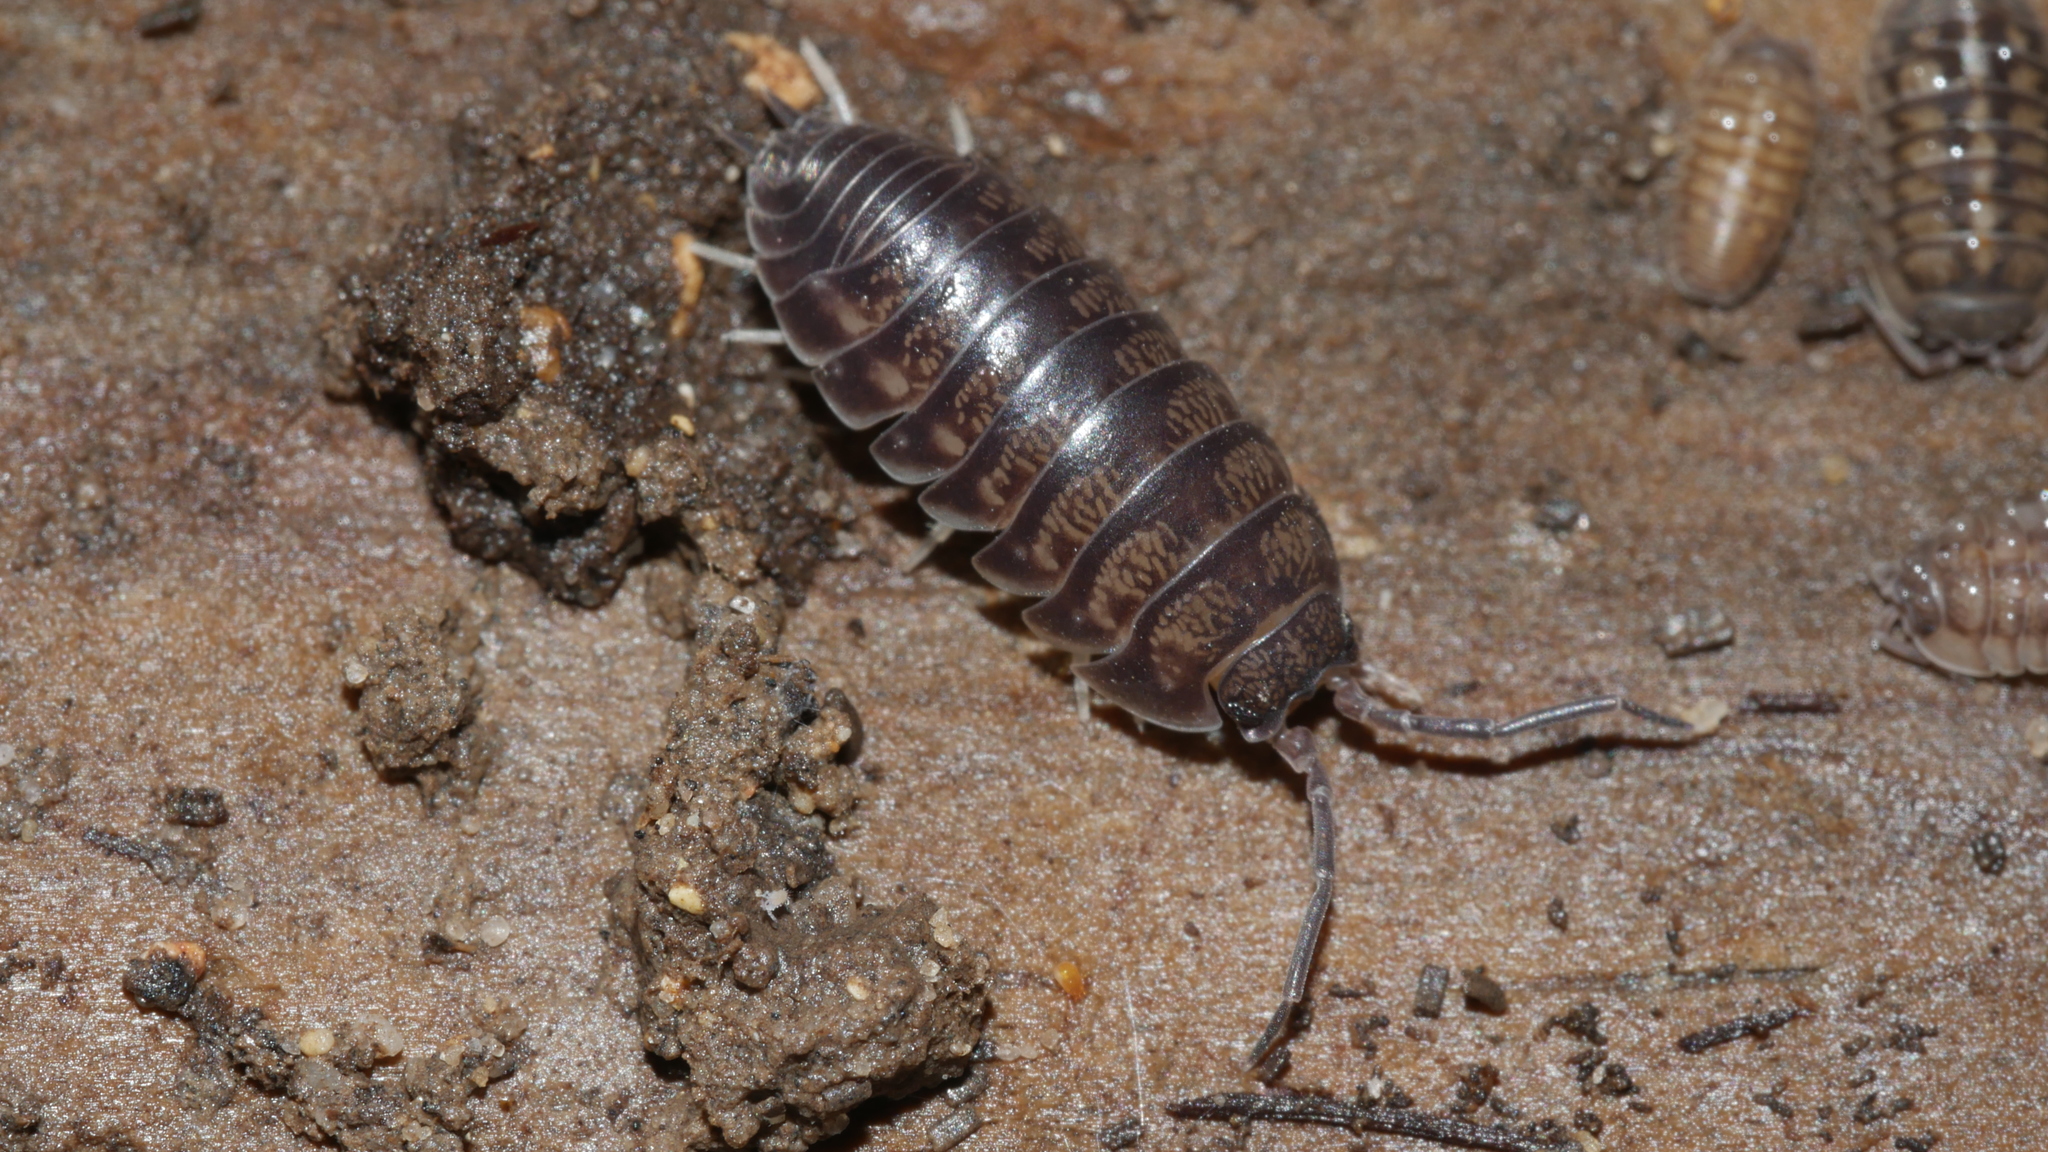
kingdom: Animalia
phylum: Arthropoda
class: Malacostraca
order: Isopoda
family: Cylisticidae
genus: Cylisticus
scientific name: Cylisticus convexus
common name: Curly woodlouse
